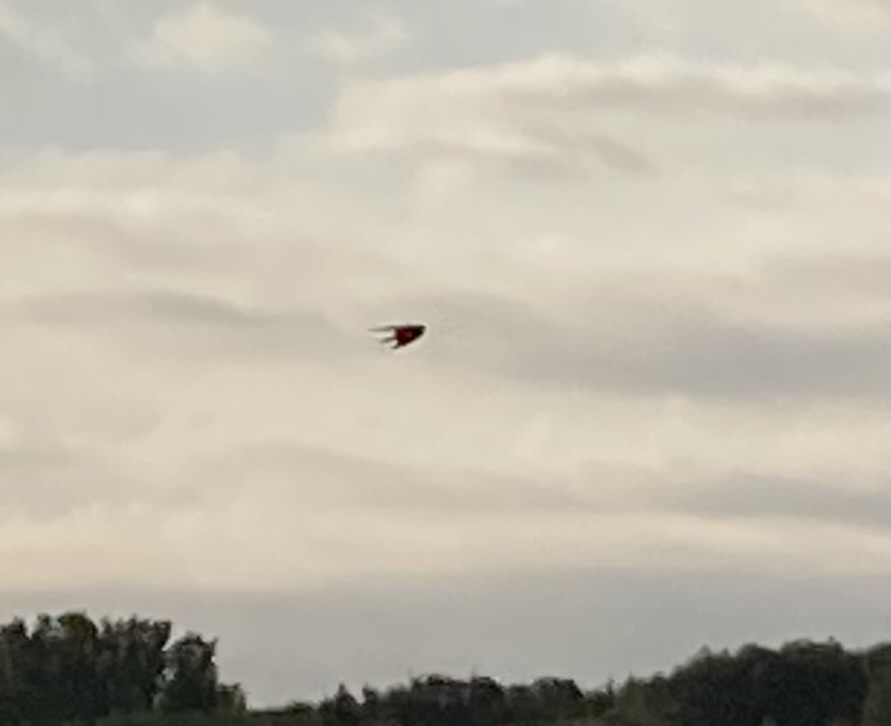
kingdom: Animalia
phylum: Chordata
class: Aves
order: Passeriformes
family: Hirundinidae
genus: Hirundo
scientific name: Hirundo rustica
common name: Barn swallow
